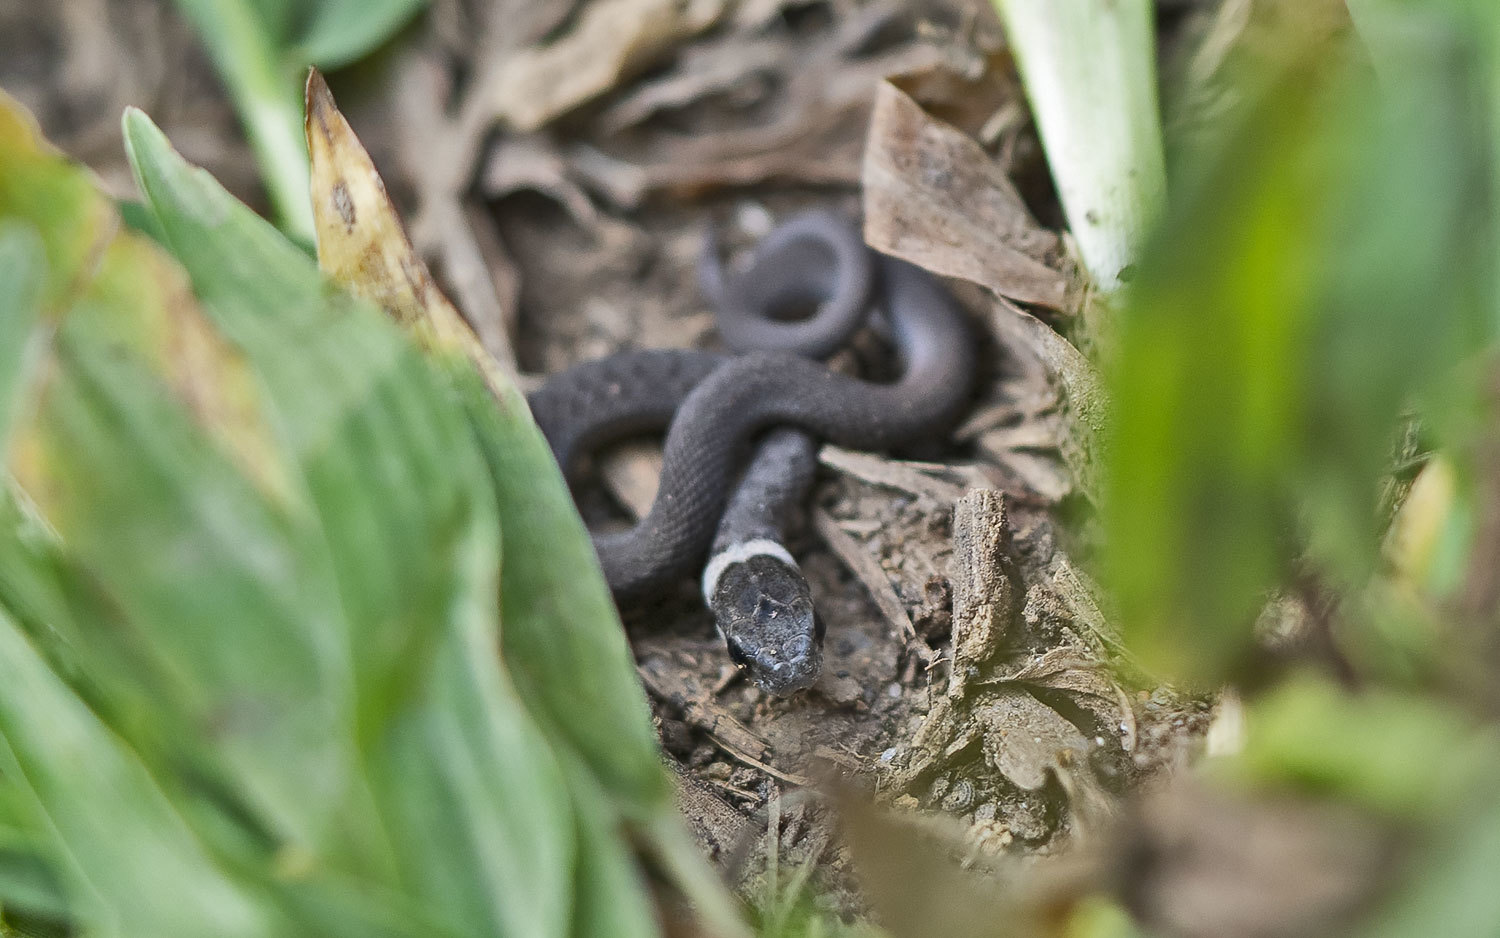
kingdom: Animalia
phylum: Chordata
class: Squamata
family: Colubridae
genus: Storeria
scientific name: Storeria dekayi
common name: (dekay’s) brown snake
